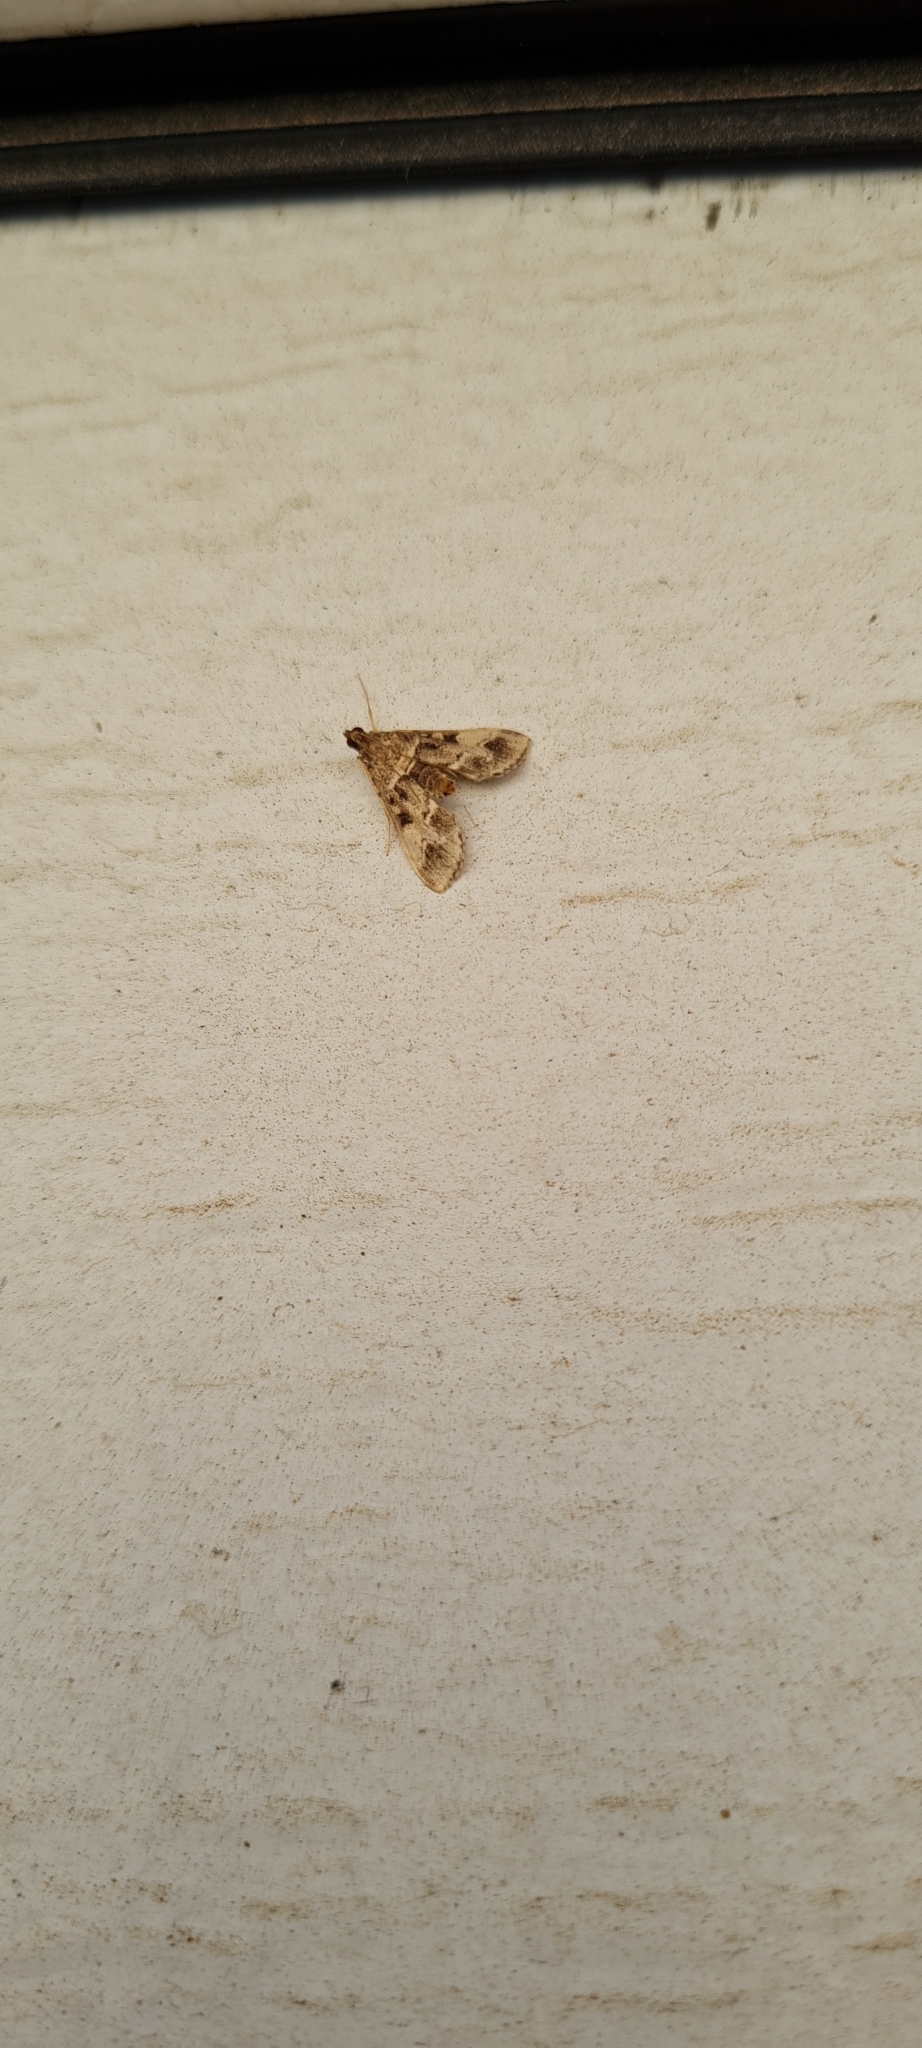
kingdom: Animalia
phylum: Arthropoda
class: Insecta
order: Lepidoptera
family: Crambidae
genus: Duponchelia
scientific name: Duponchelia fovealis
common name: Crambid moth
